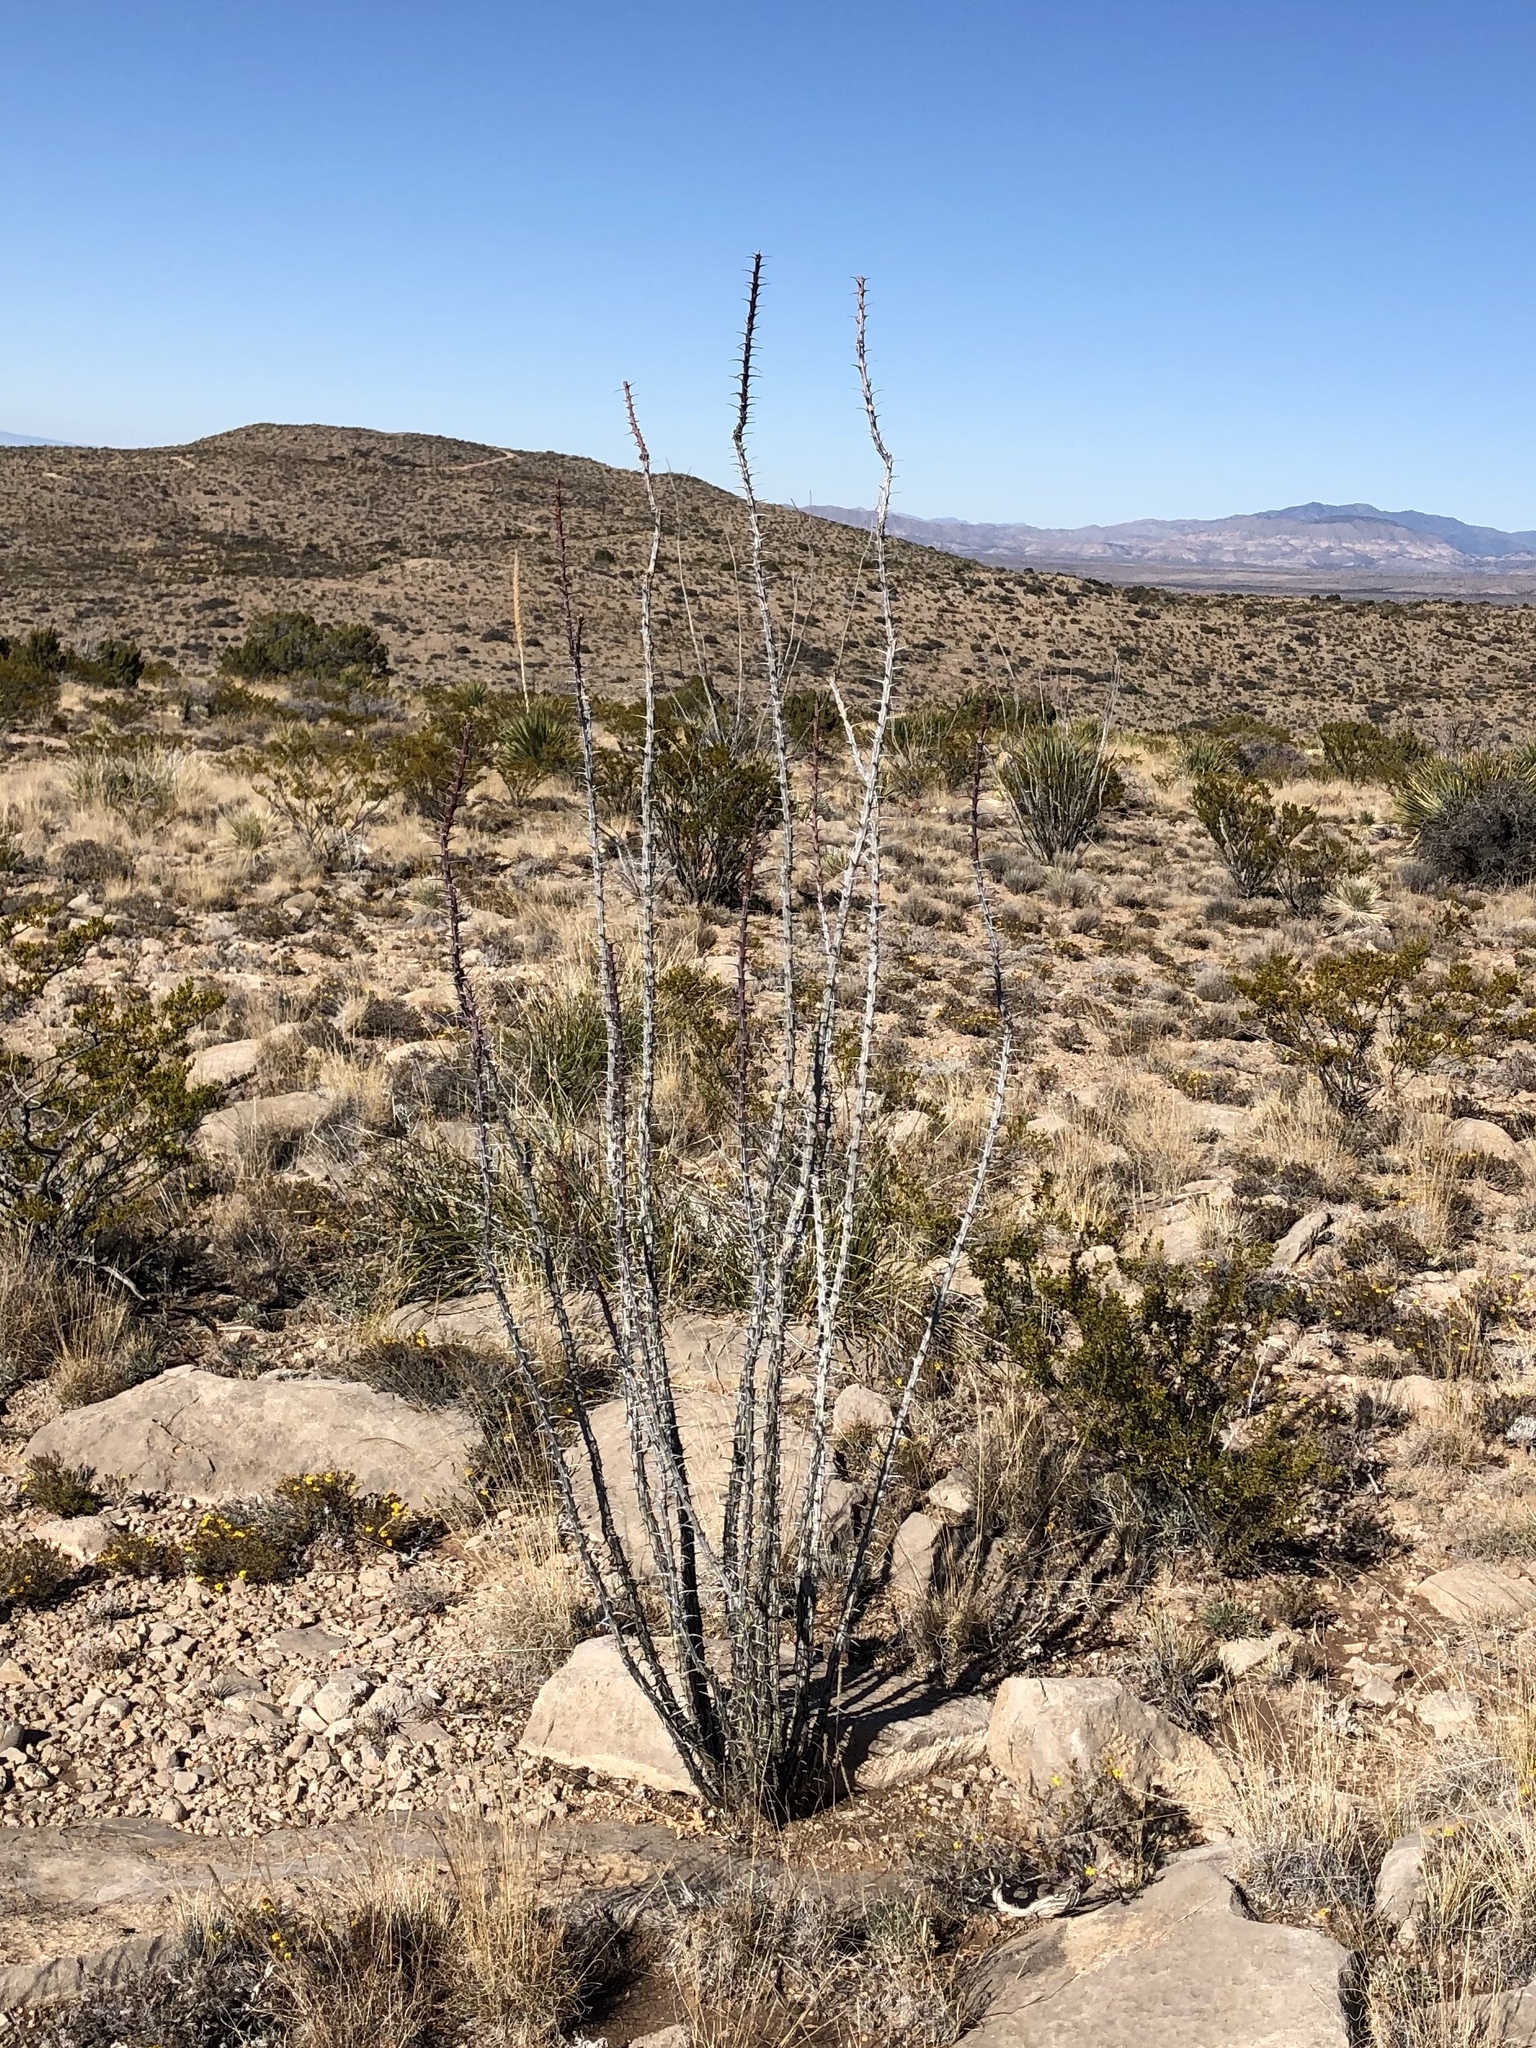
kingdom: Plantae
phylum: Tracheophyta
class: Magnoliopsida
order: Ericales
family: Fouquieriaceae
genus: Fouquieria
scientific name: Fouquieria splendens
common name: Vine-cactus
